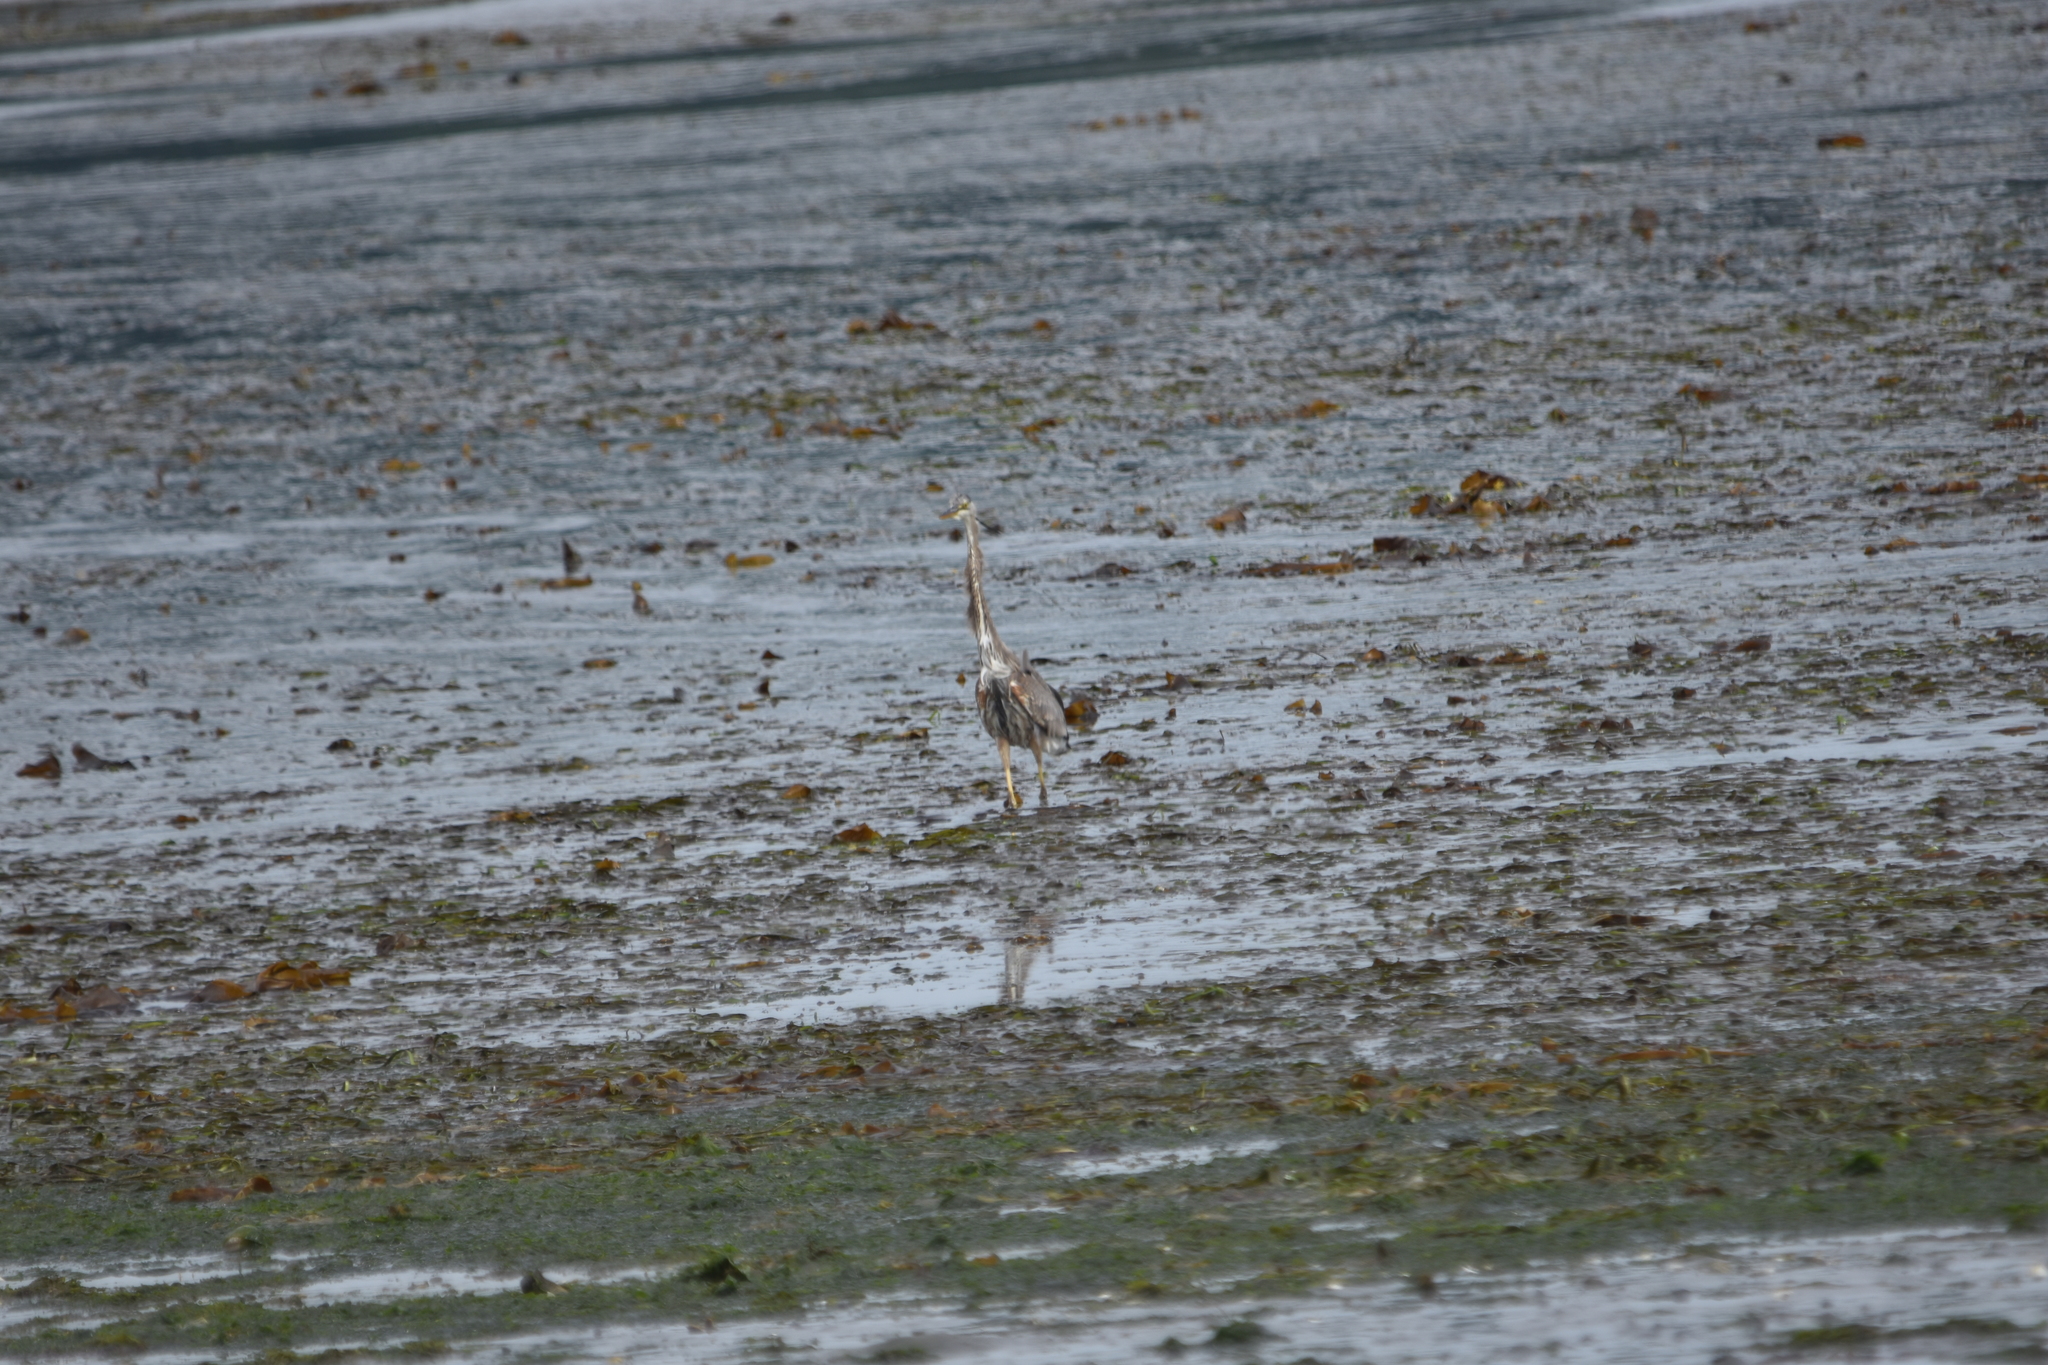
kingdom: Animalia
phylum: Chordata
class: Aves
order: Pelecaniformes
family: Ardeidae
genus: Ardea
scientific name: Ardea herodias
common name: Great blue heron
